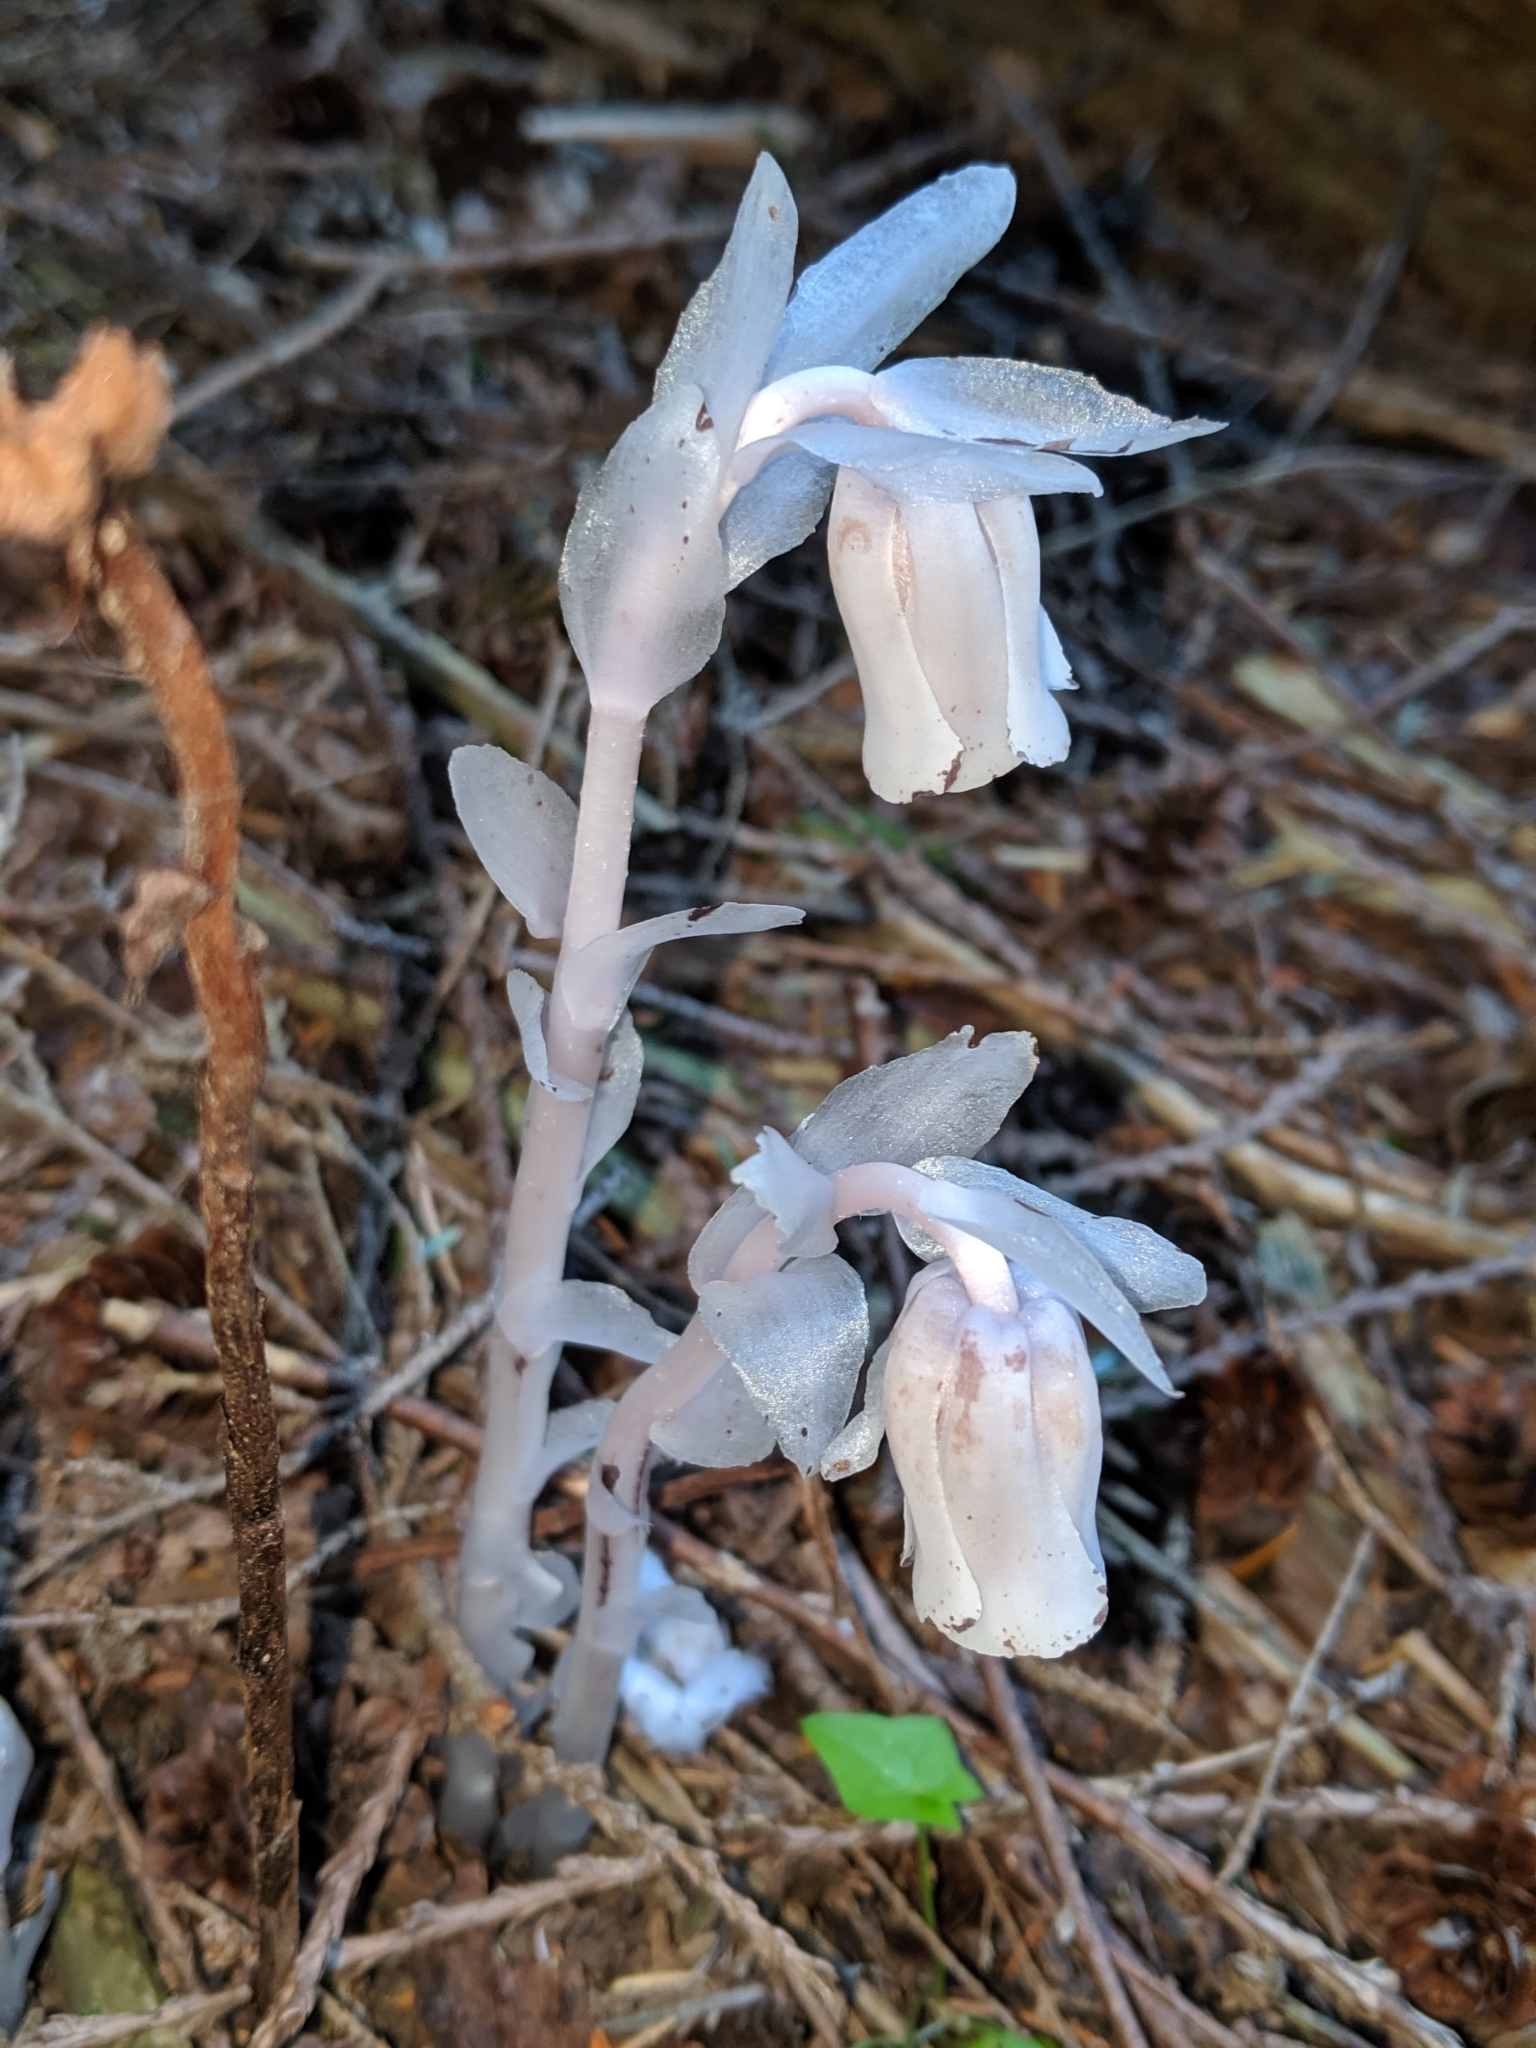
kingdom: Plantae
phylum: Tracheophyta
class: Magnoliopsida
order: Ericales
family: Ericaceae
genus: Monotropa
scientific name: Monotropa uniflora
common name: Convulsion root
